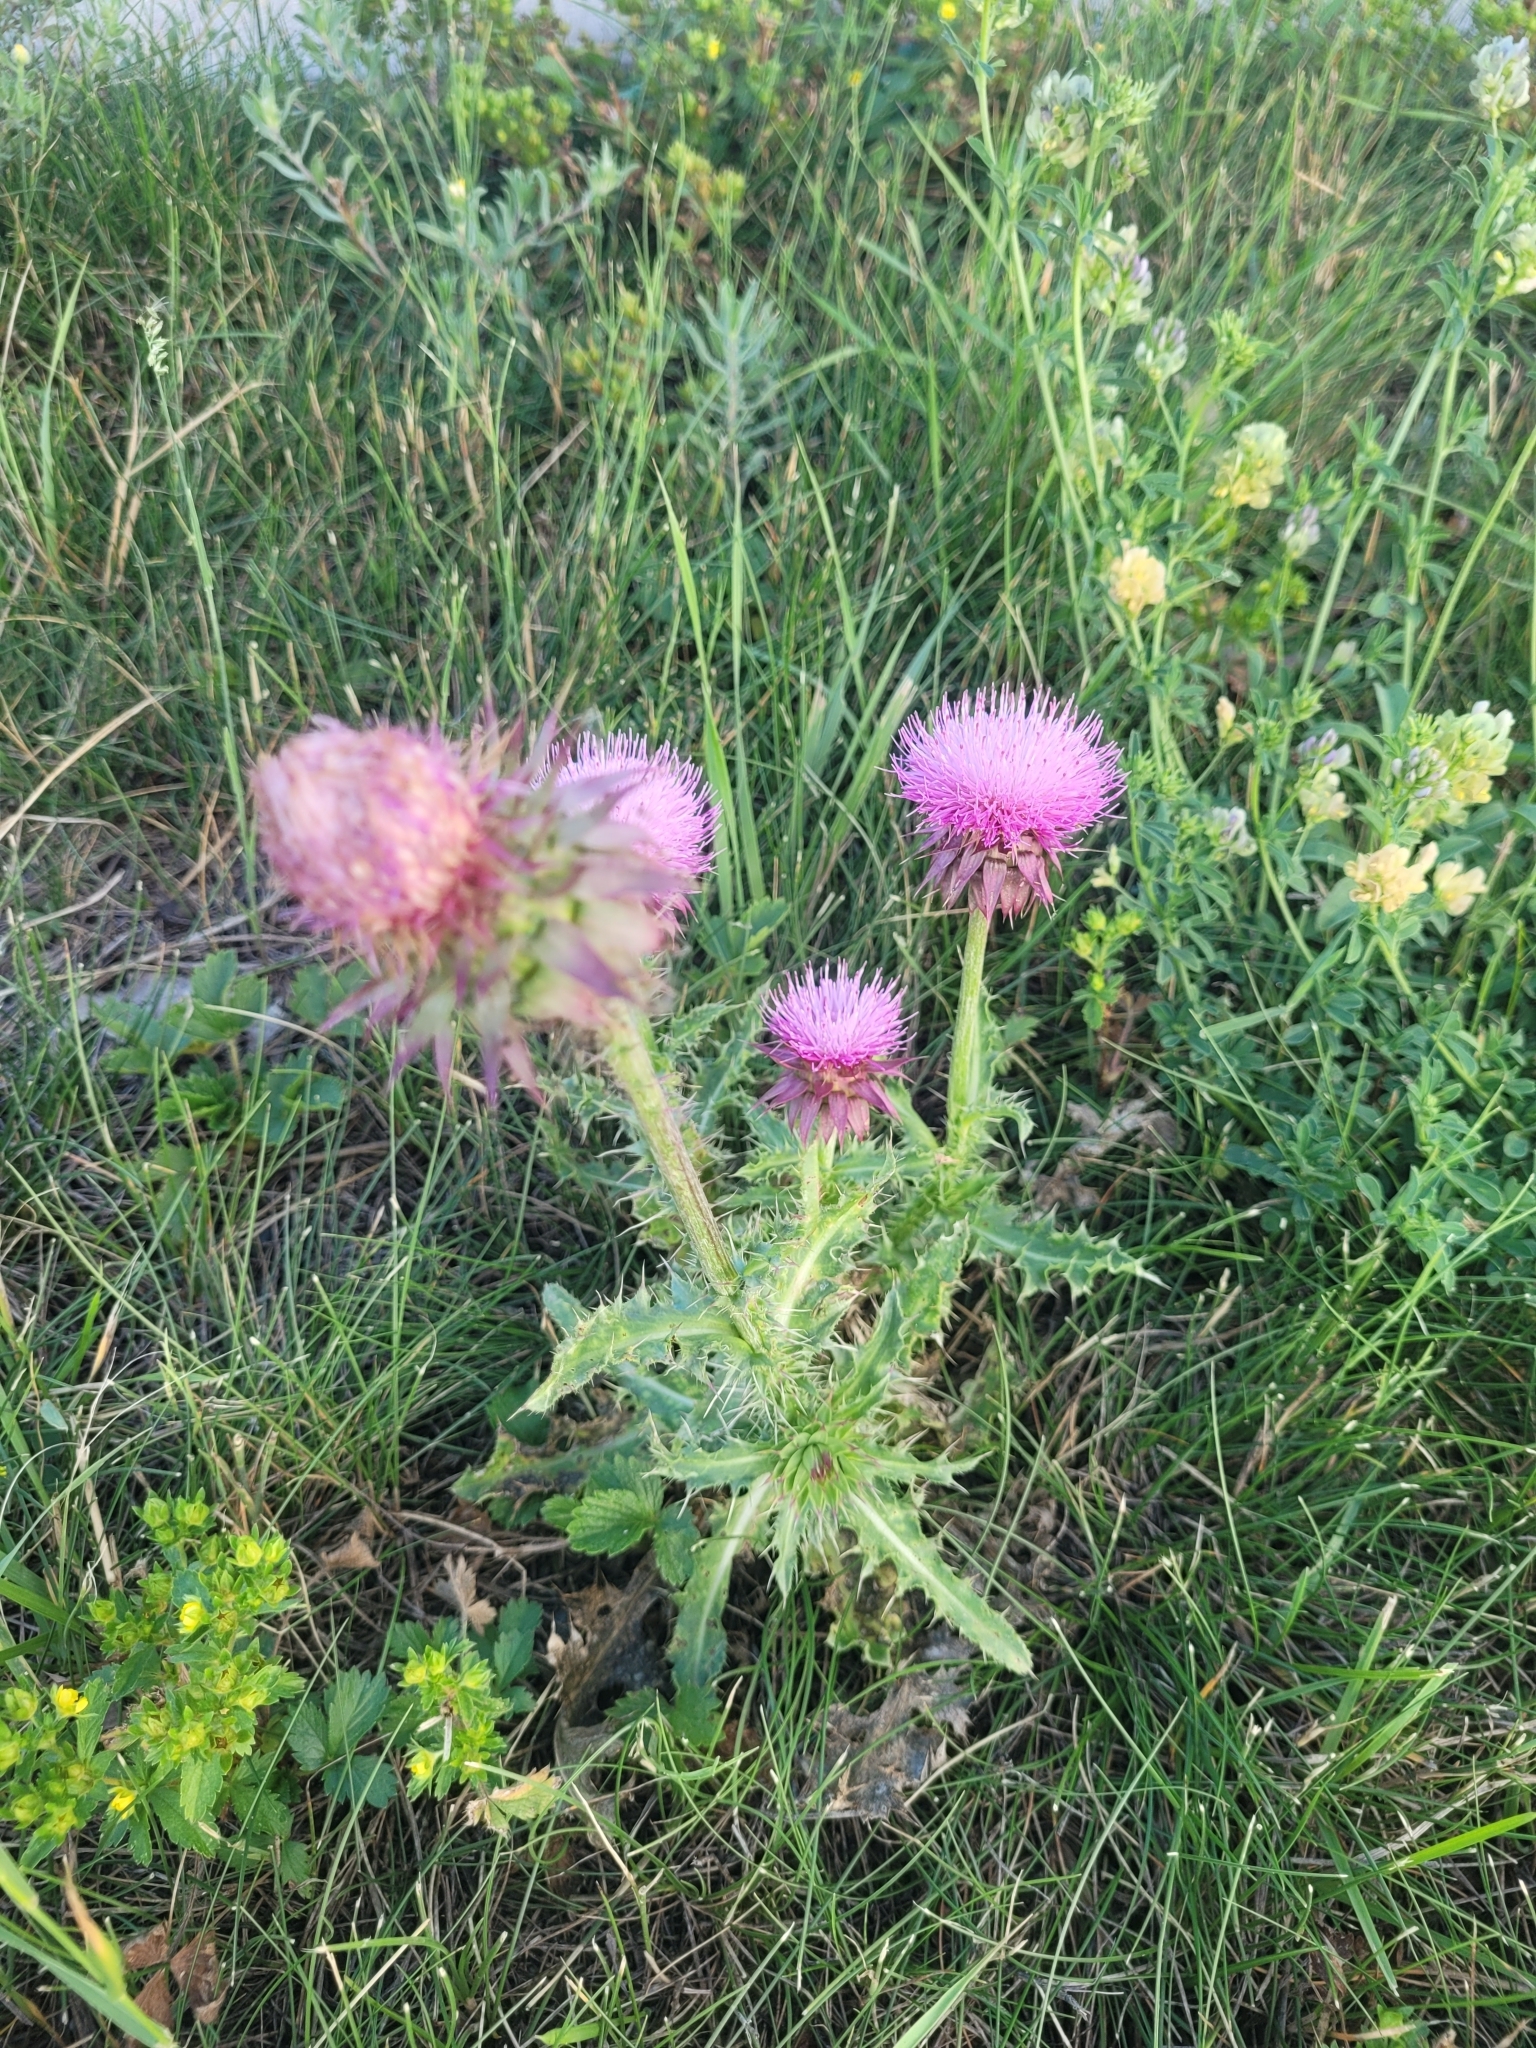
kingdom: Plantae
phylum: Tracheophyta
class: Magnoliopsida
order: Asterales
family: Asteraceae
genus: Carduus
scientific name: Carduus nutans
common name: Musk thistle
